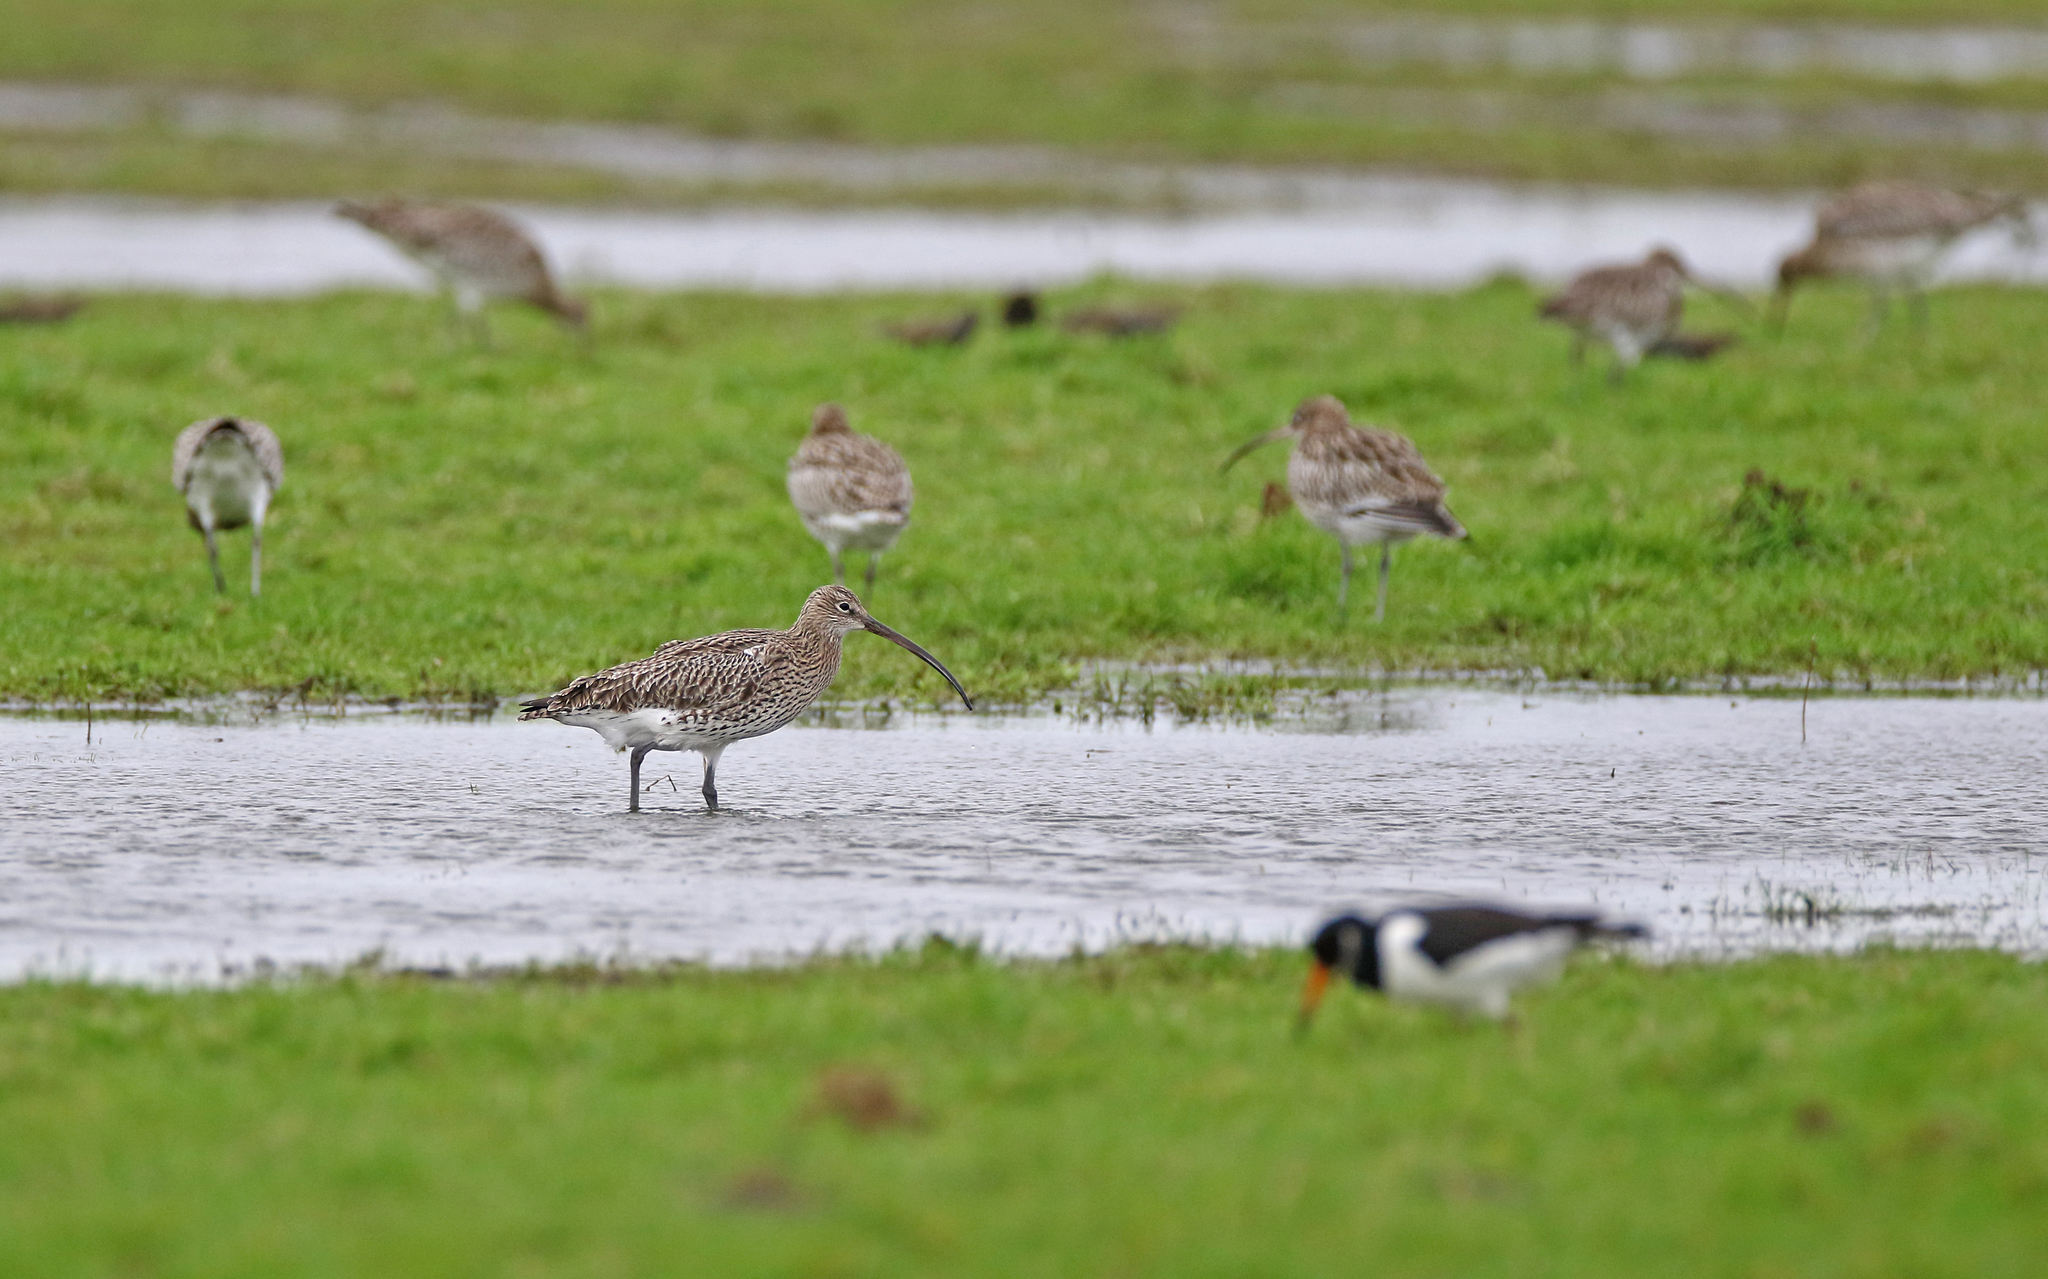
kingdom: Animalia
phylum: Chordata
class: Aves
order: Charadriiformes
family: Scolopacidae
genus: Numenius
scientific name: Numenius arquata
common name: Eurasian curlew
